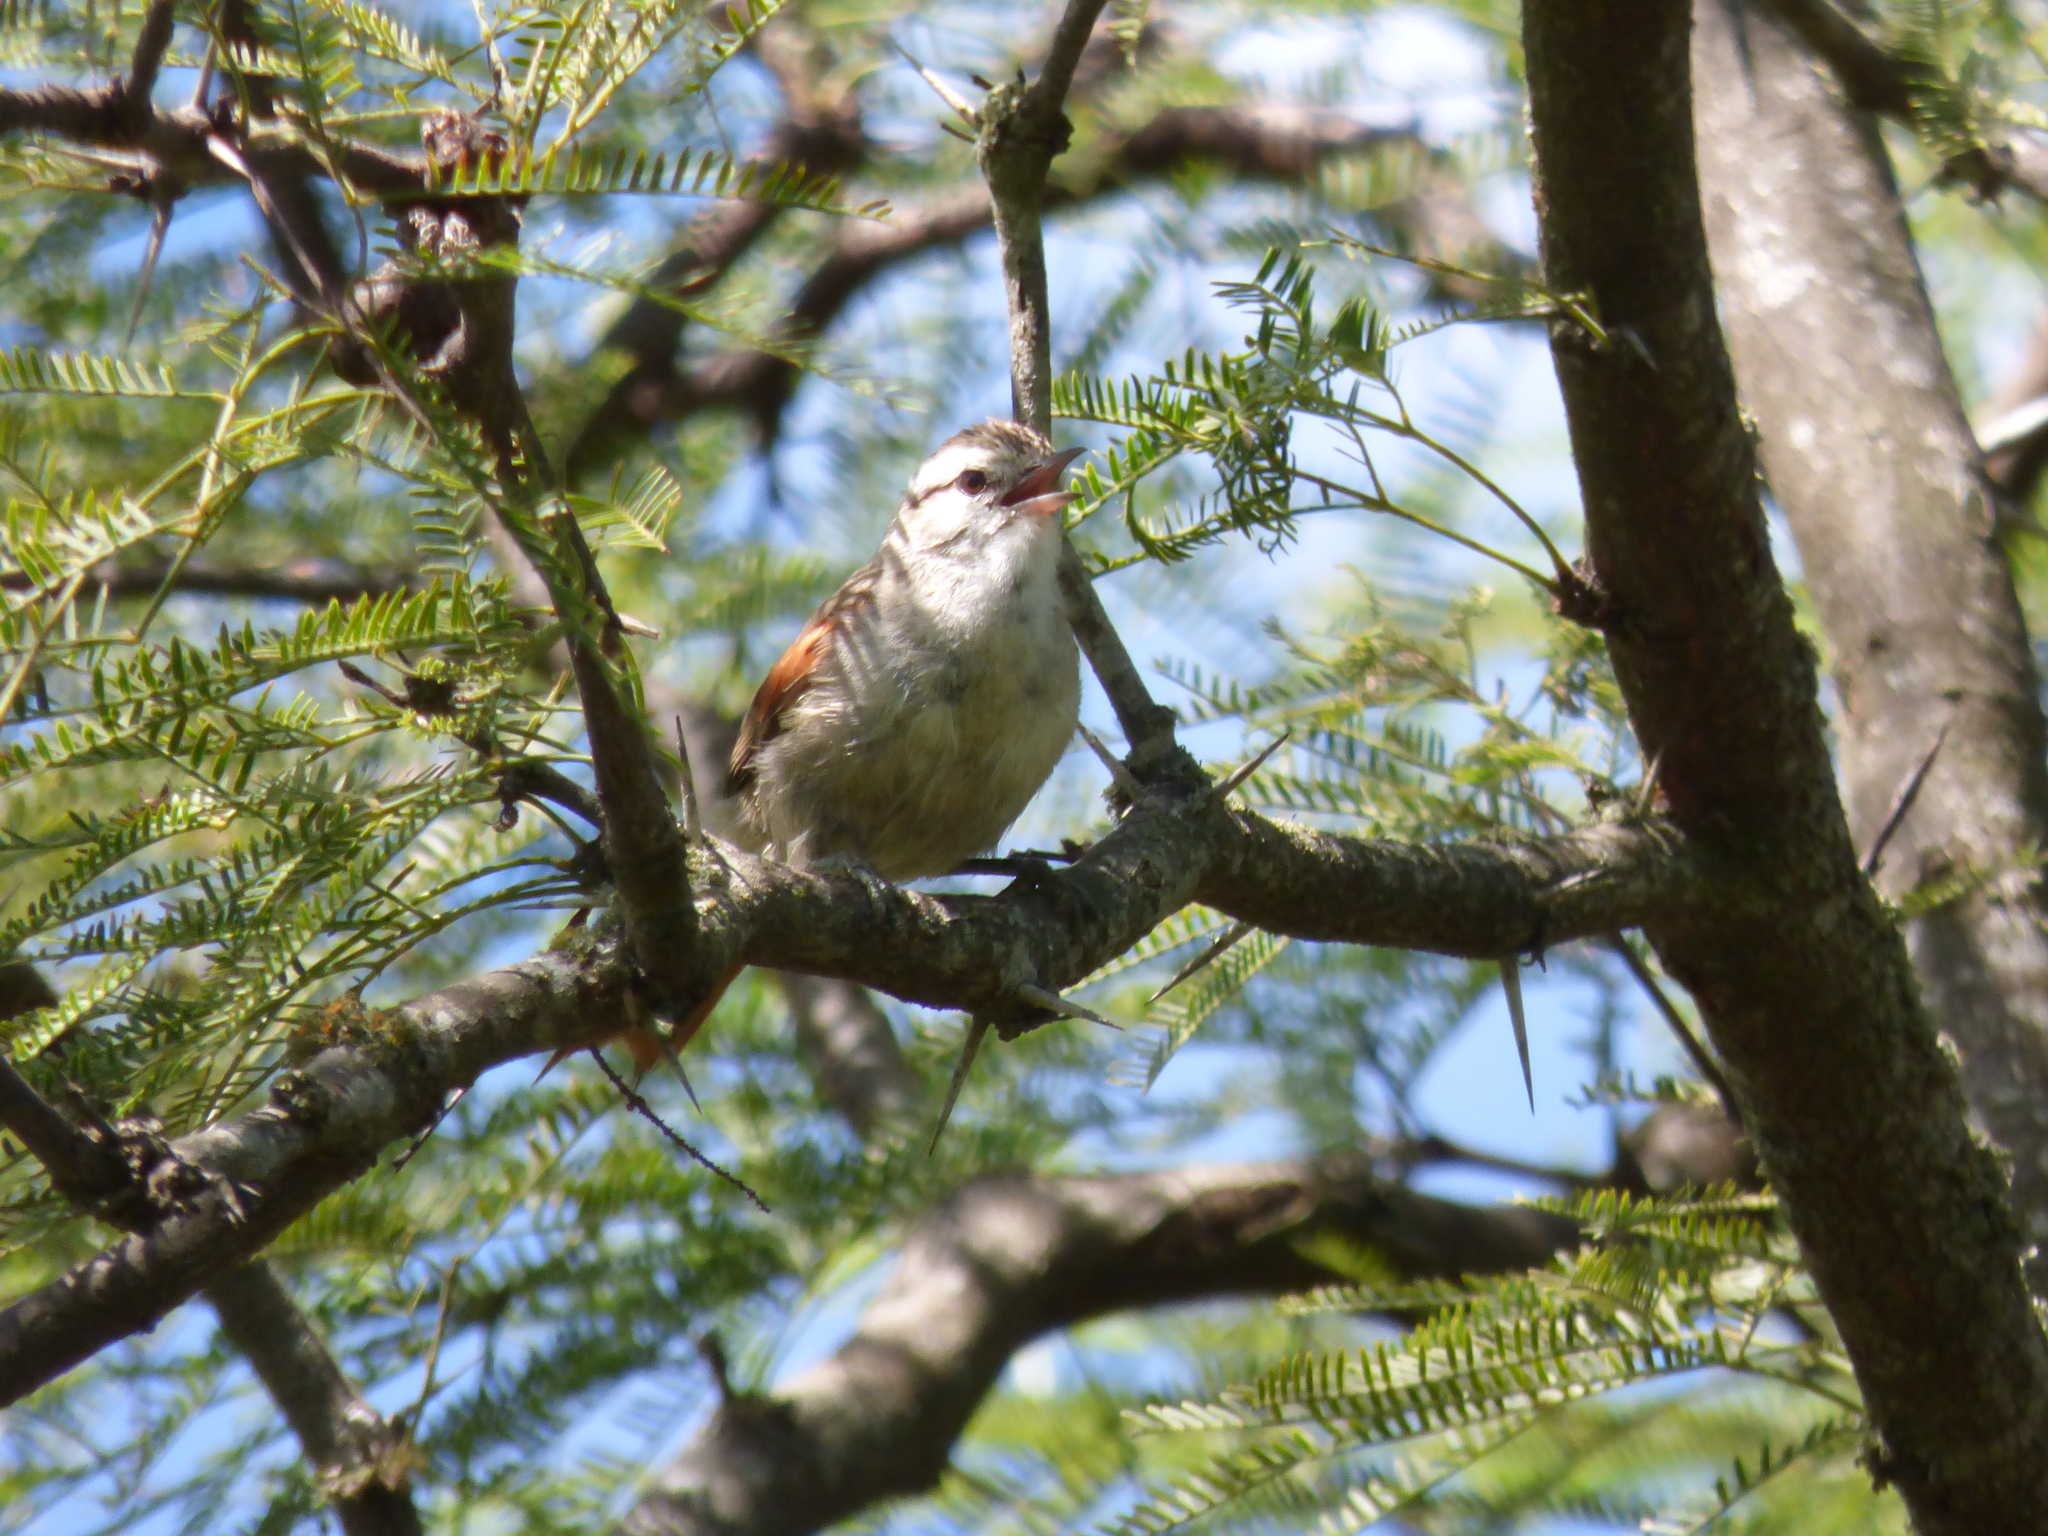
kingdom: Animalia
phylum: Chordata
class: Aves
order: Passeriformes
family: Furnariidae
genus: Cranioleuca
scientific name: Cranioleuca pyrrhophia
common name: Stripe-crowned spinetail
